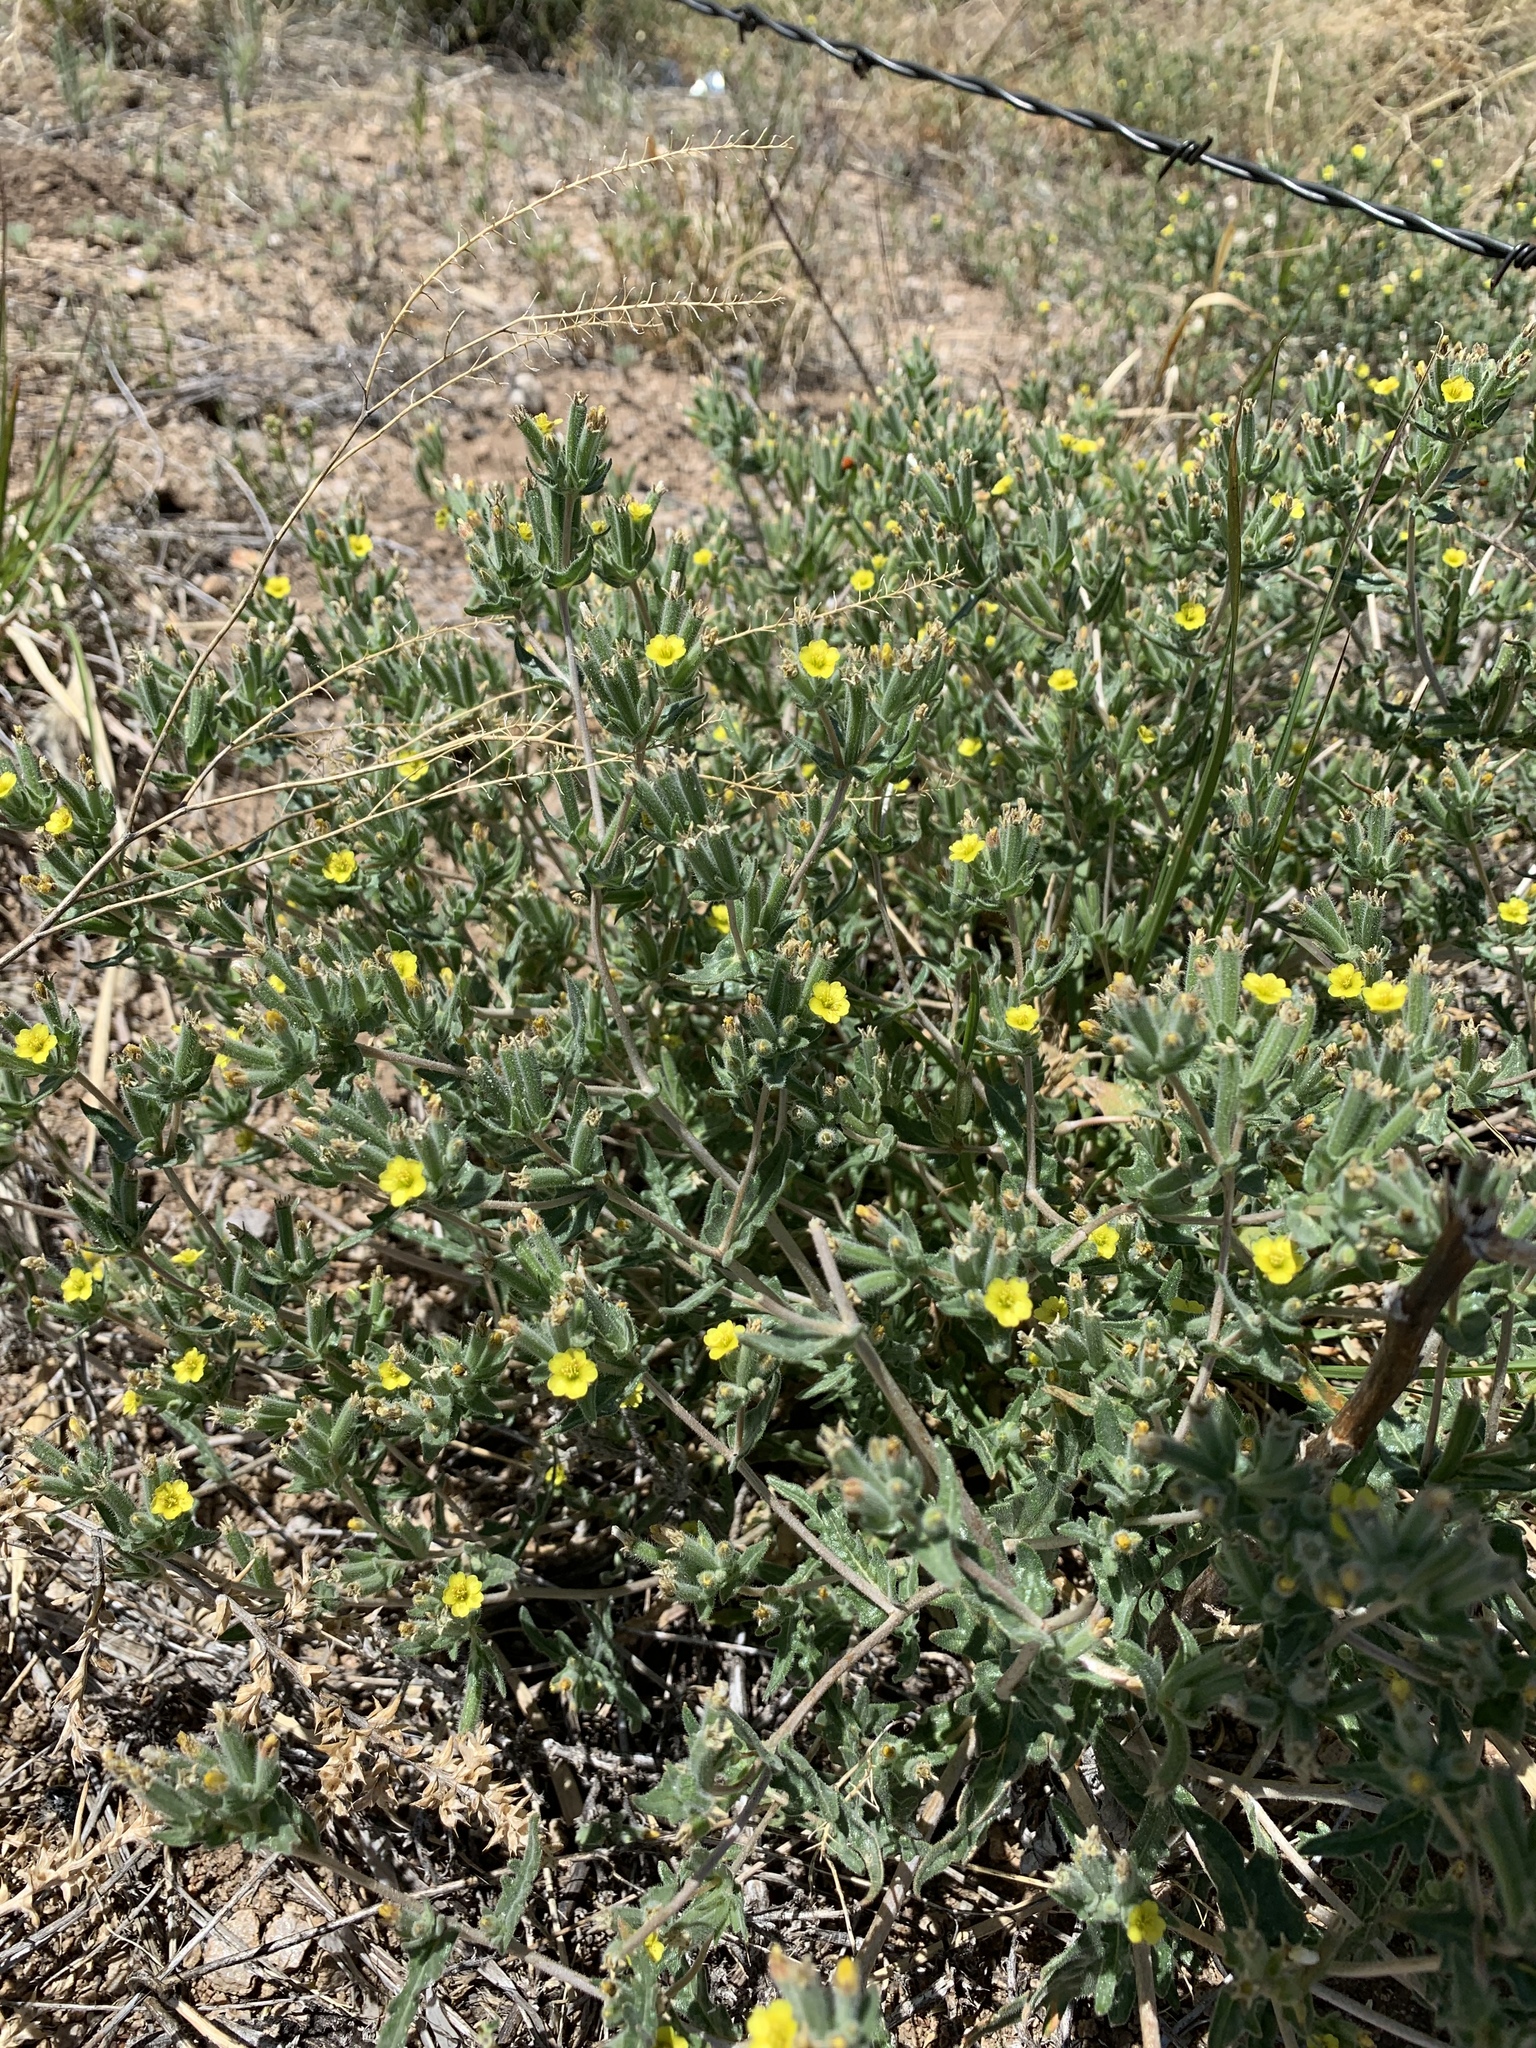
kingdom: Plantae
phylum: Tracheophyta
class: Magnoliopsida
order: Cornales
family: Loasaceae
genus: Mentzelia
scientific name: Mentzelia albicaulis
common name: White-stem blazingstar
